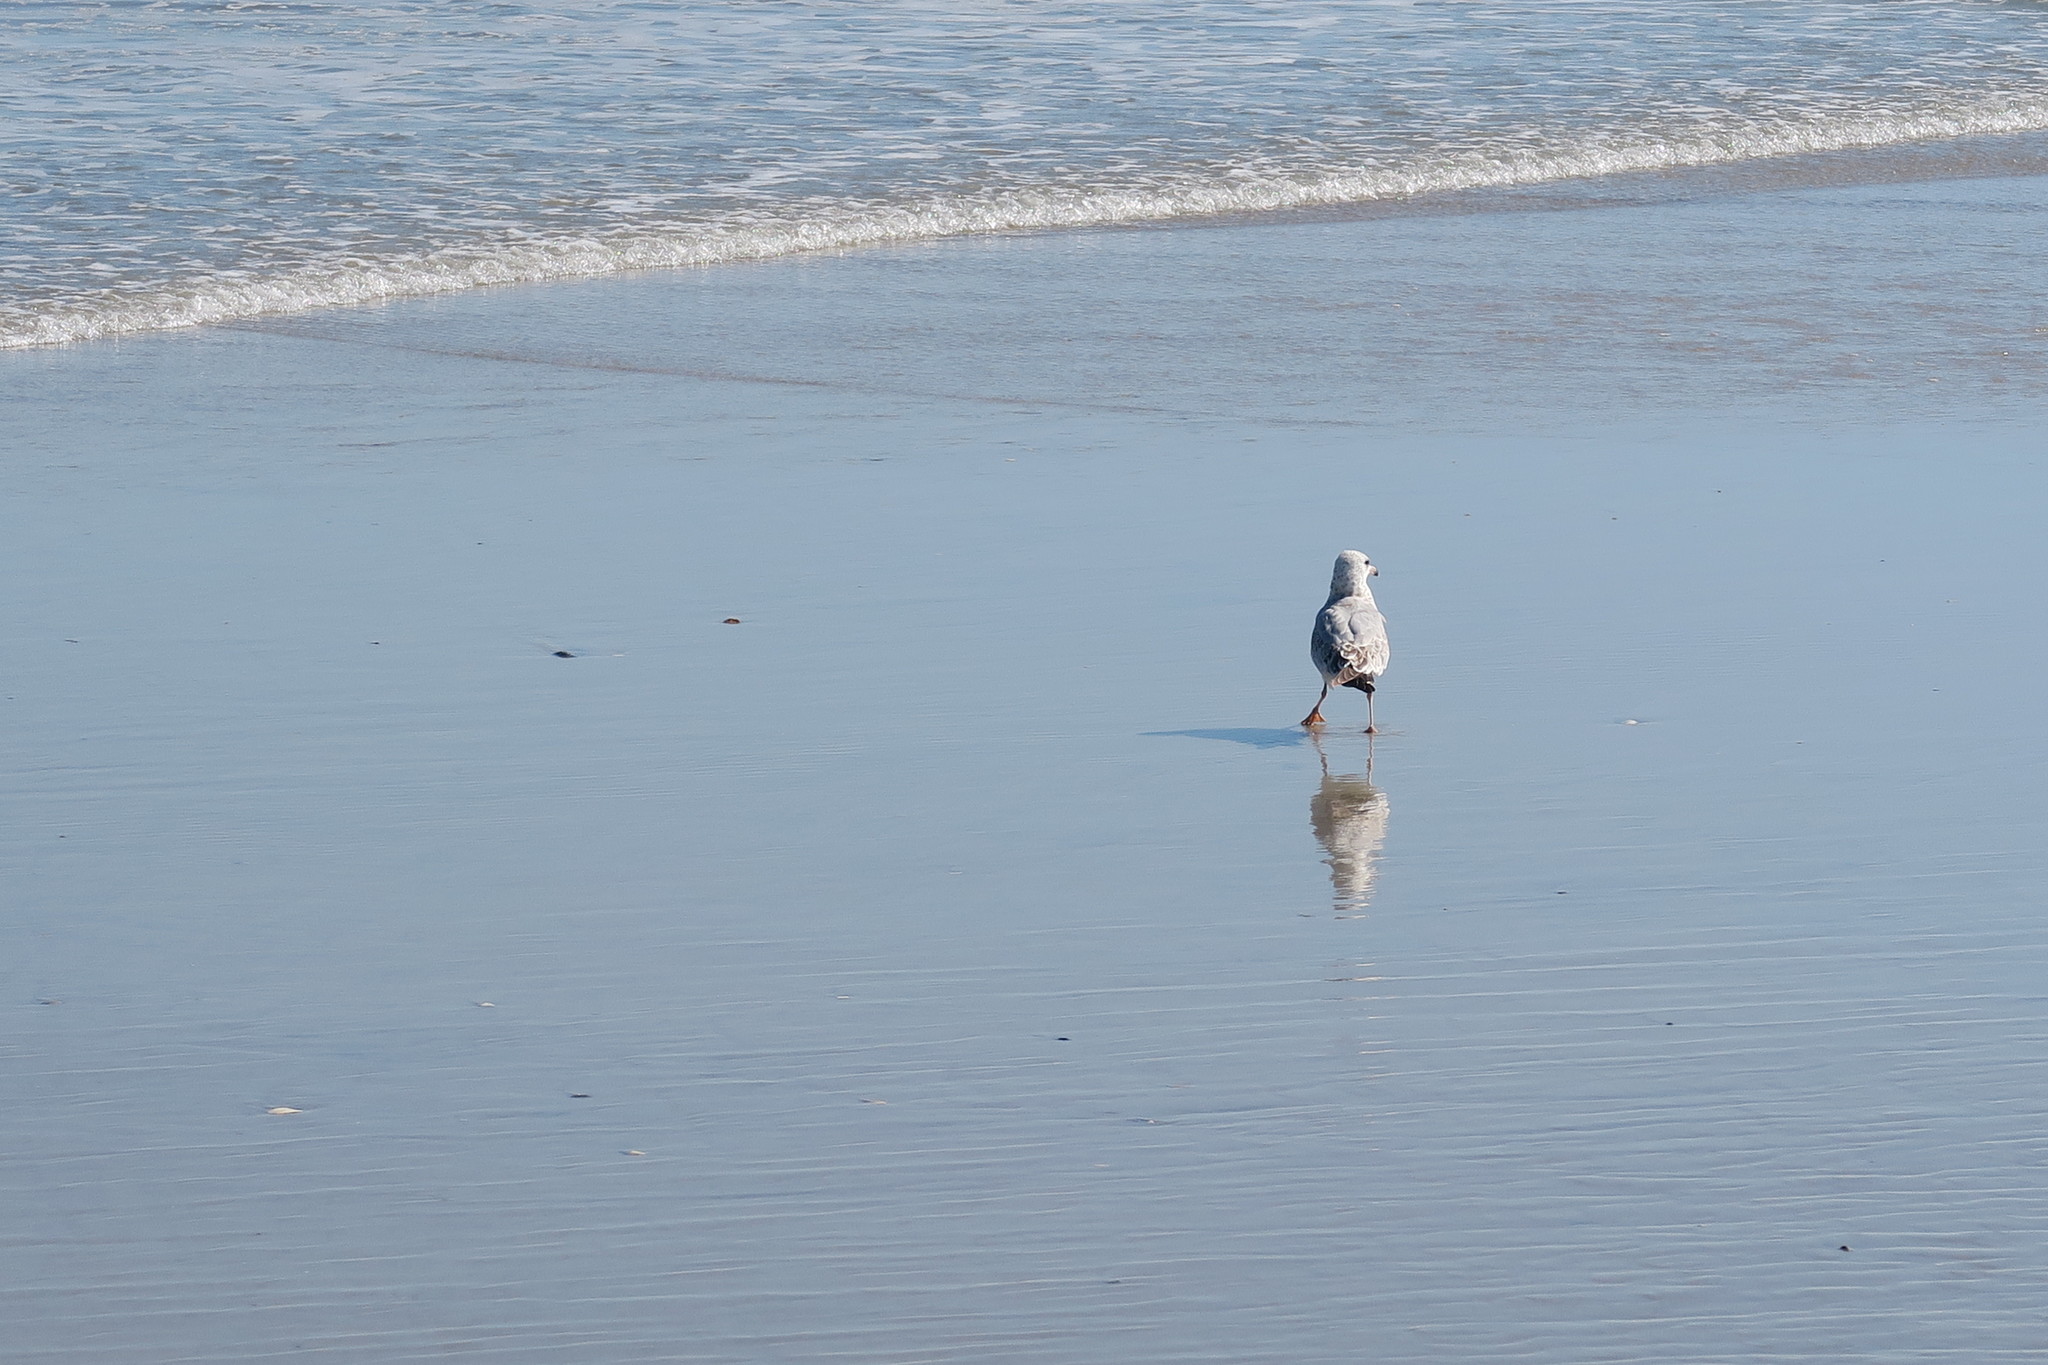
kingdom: Animalia
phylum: Chordata
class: Aves
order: Charadriiformes
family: Laridae
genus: Larus
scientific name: Larus delawarensis
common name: Ring-billed gull
